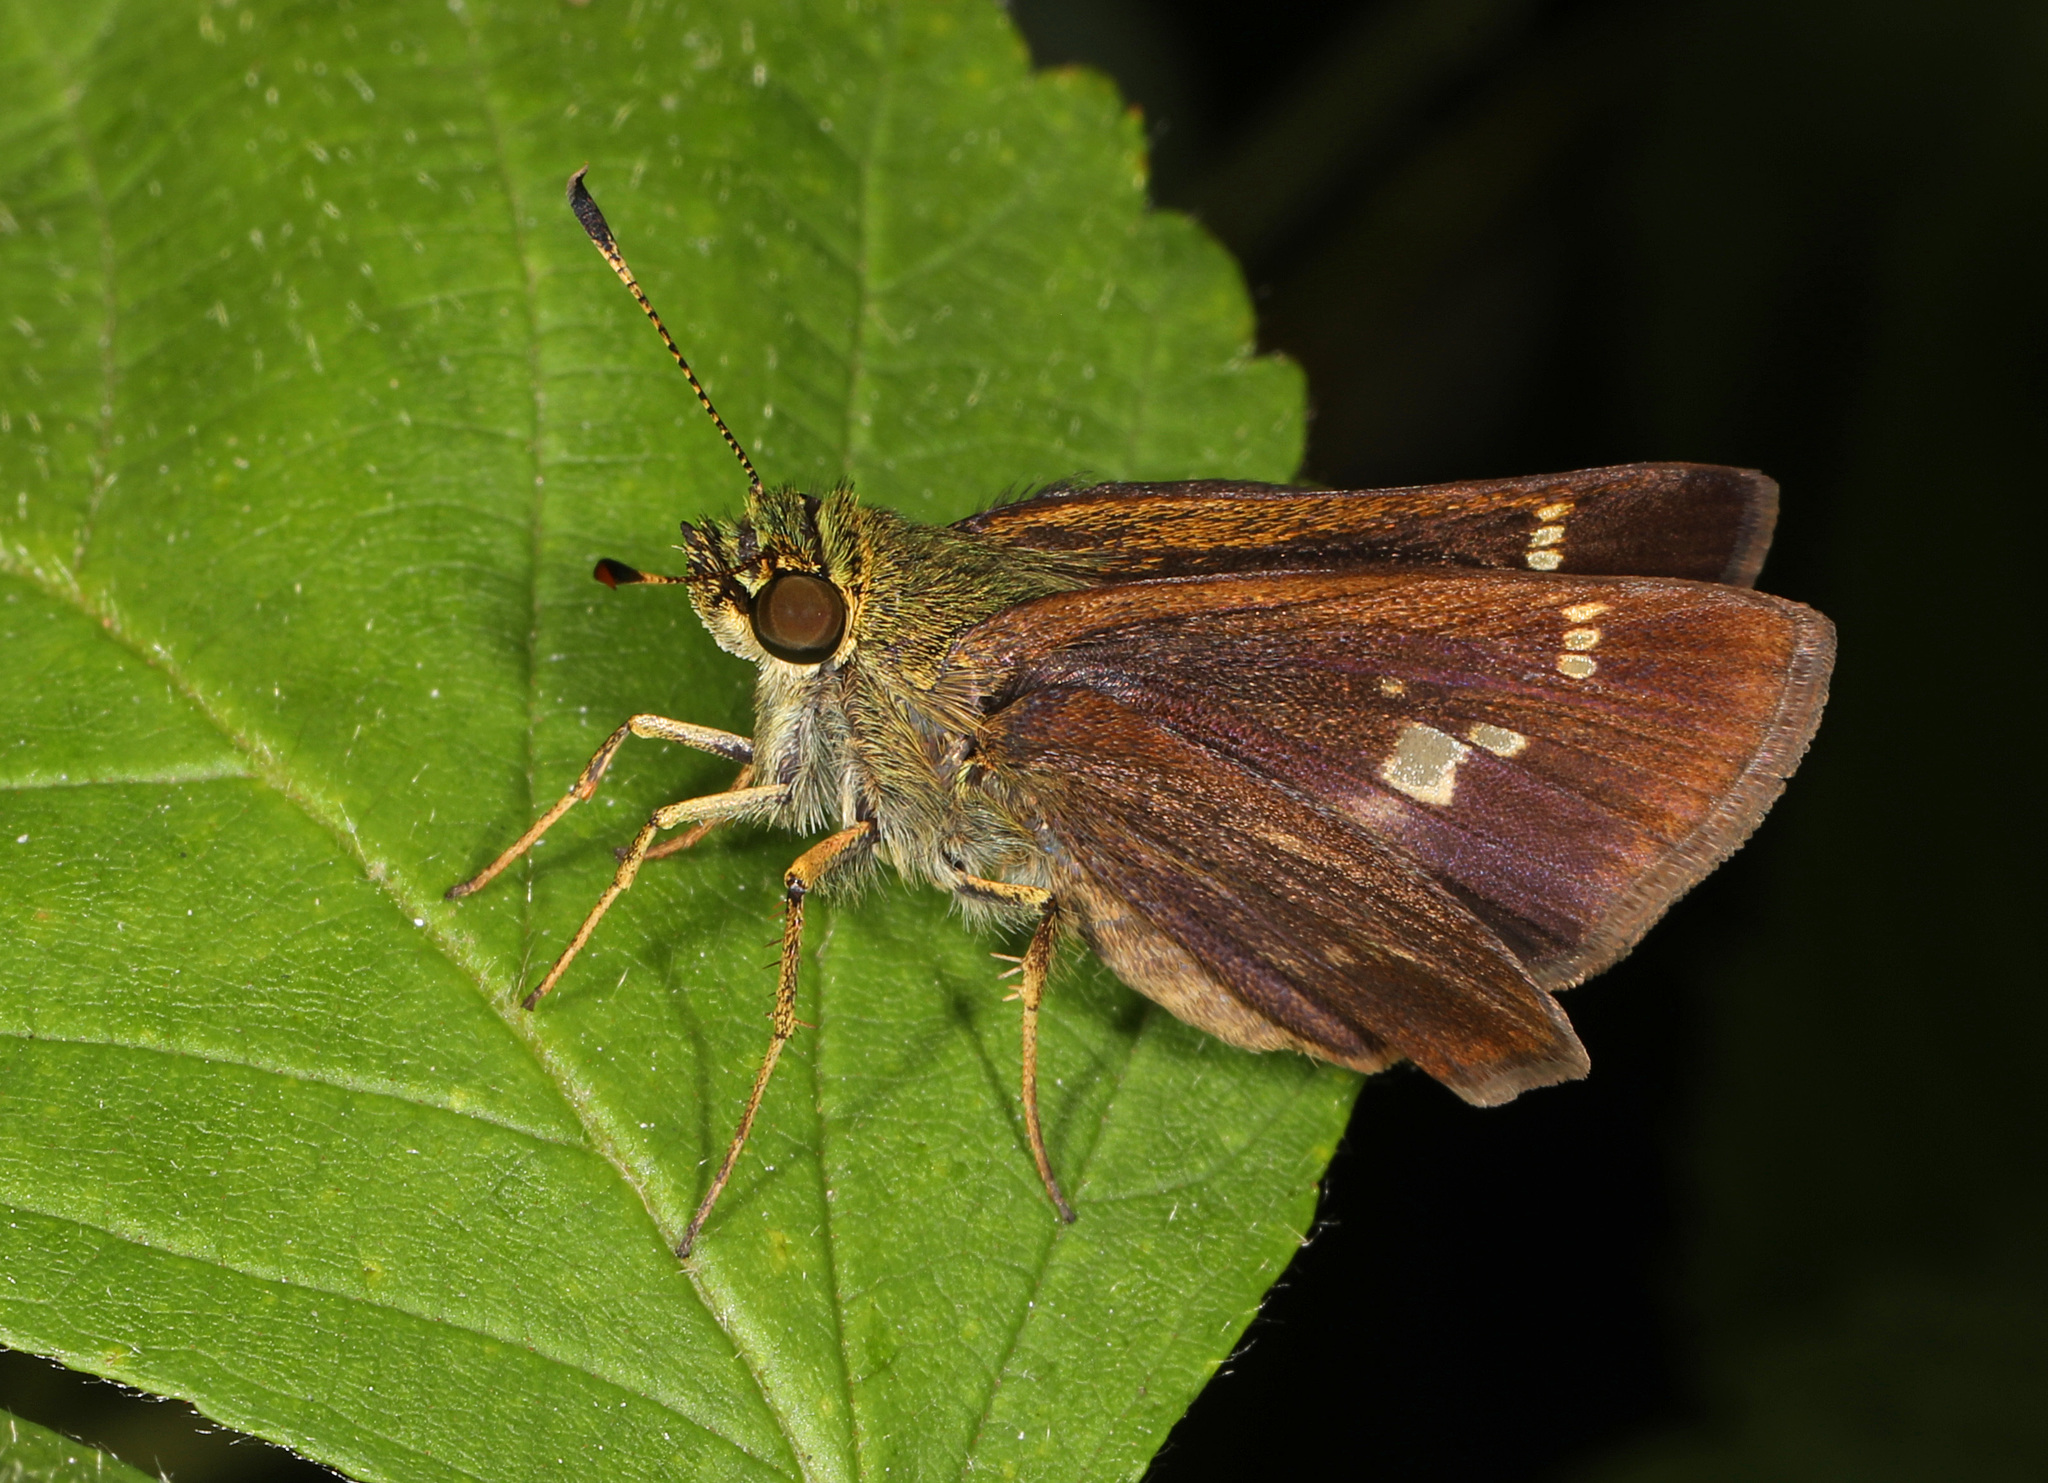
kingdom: Animalia
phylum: Arthropoda
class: Insecta
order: Lepidoptera
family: Hesperiidae
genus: Vernia
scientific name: Vernia verna
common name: Little glassywing
